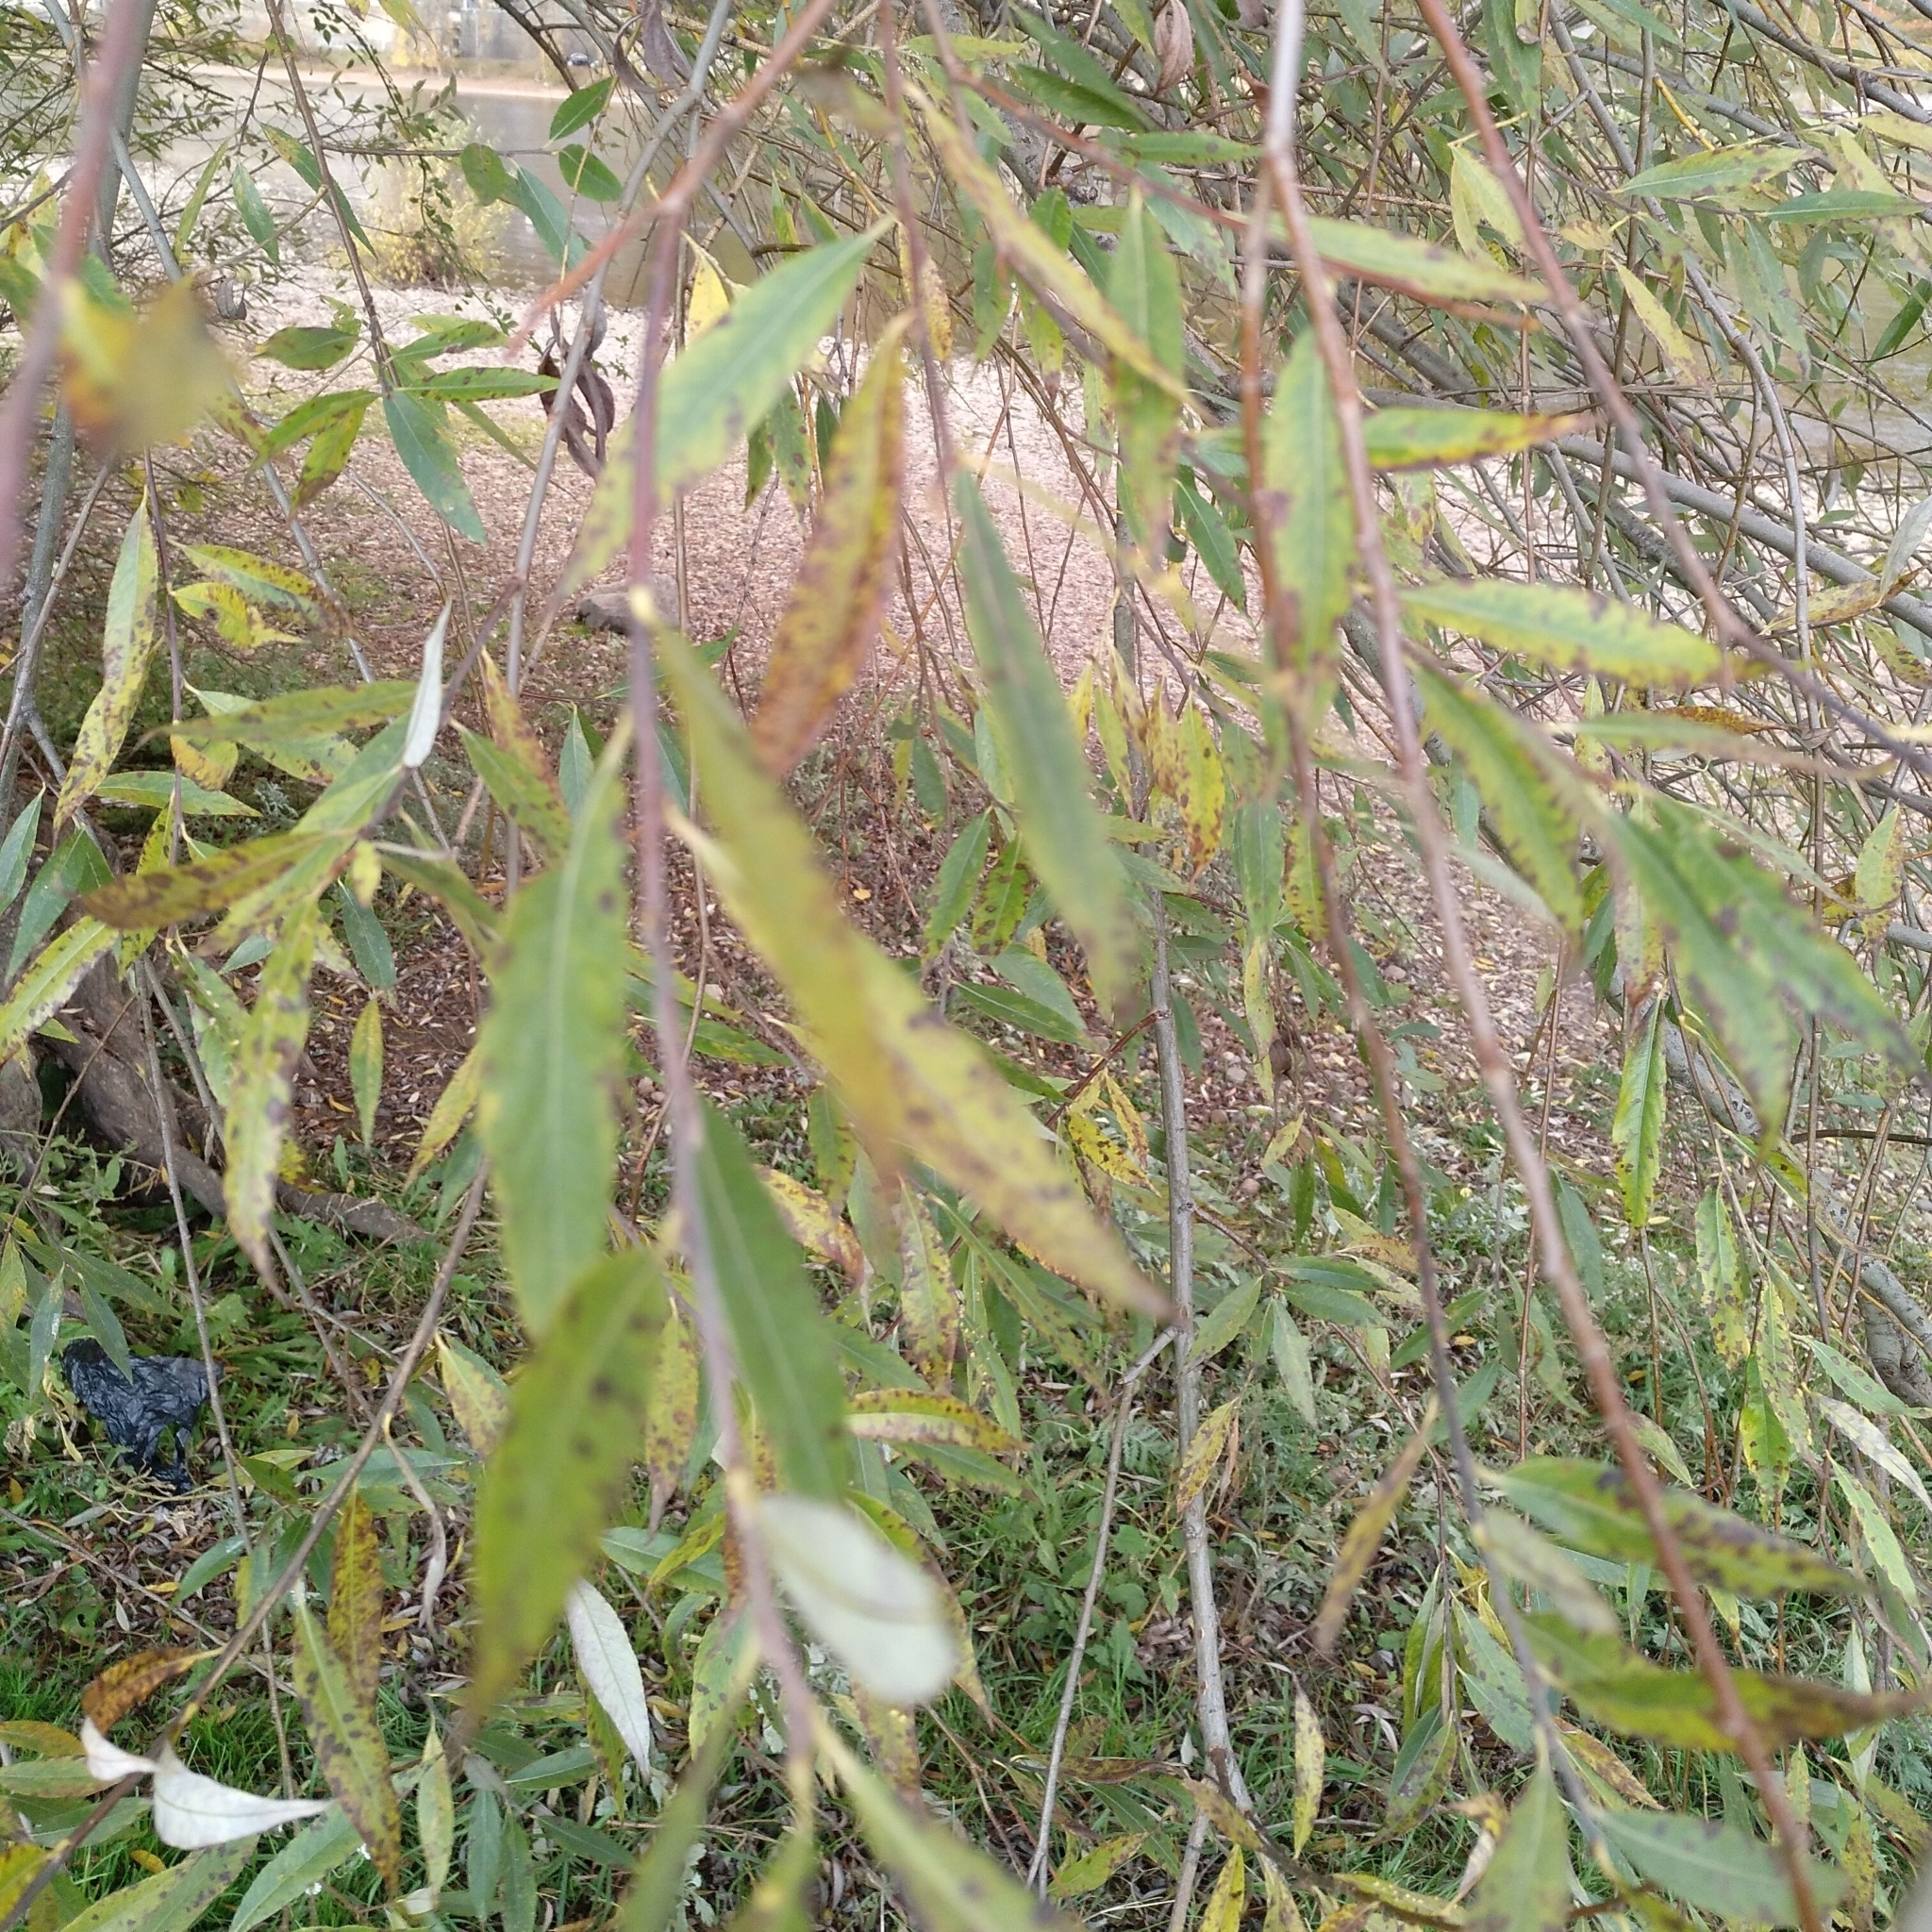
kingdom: Plantae
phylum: Tracheophyta
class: Magnoliopsida
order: Malpighiales
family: Salicaceae
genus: Salix
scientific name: Salix alba
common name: White willow
